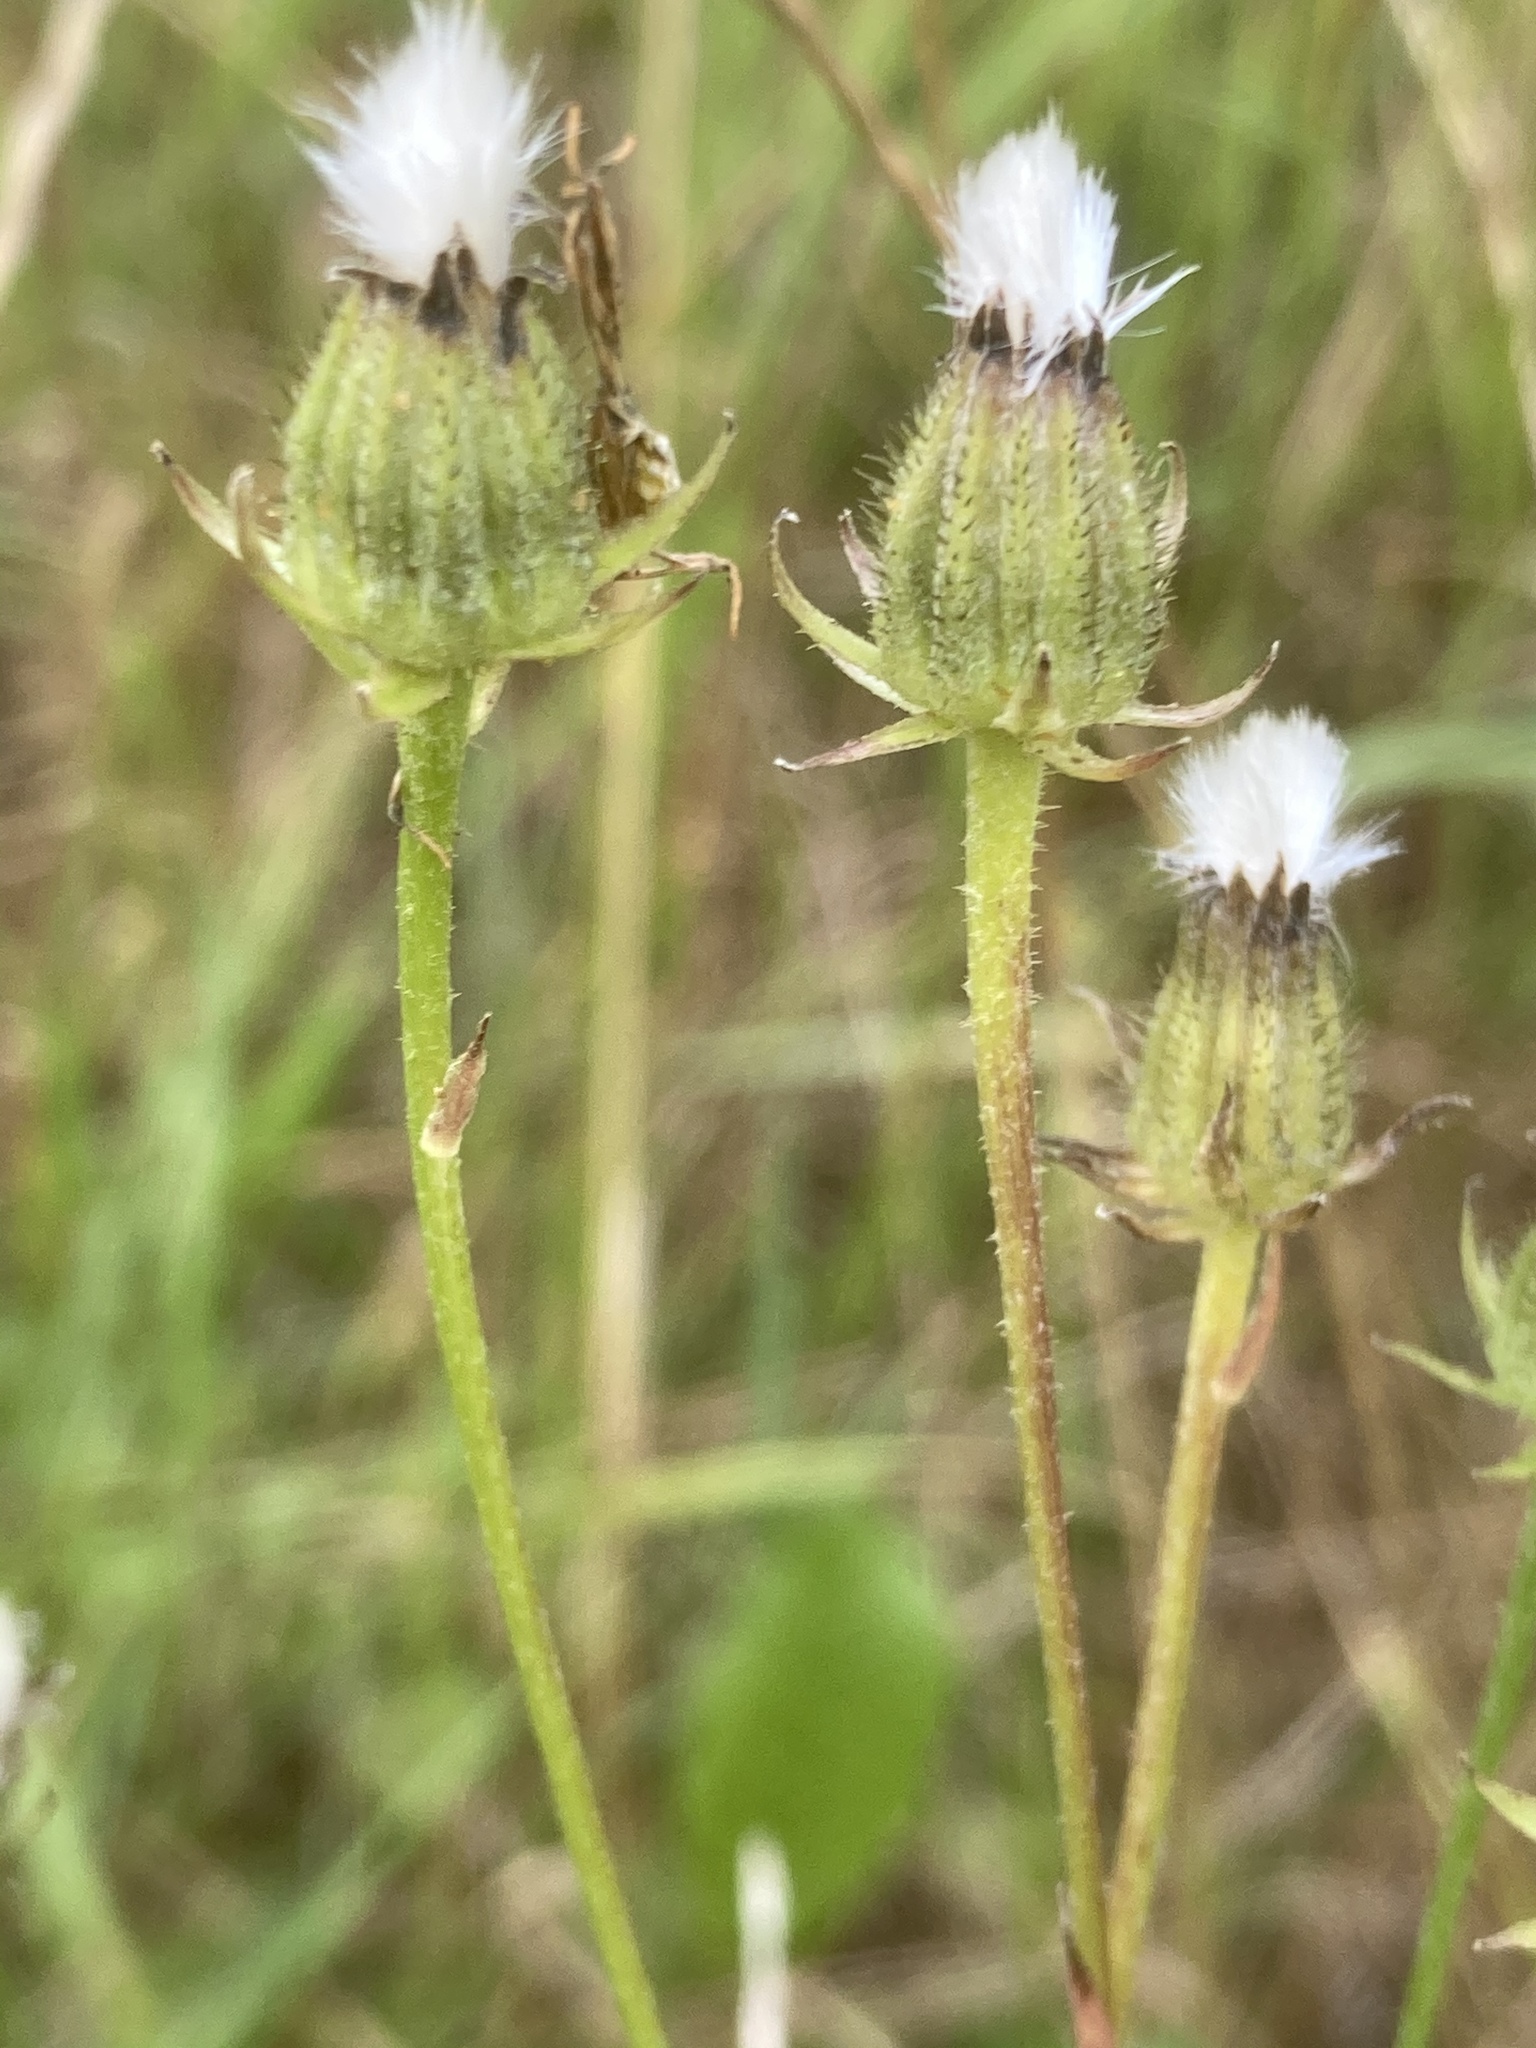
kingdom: Plantae
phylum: Tracheophyta
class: Magnoliopsida
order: Asterales
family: Asteraceae
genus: Picris
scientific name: Picris hieracioides
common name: Hawkweed oxtongue
